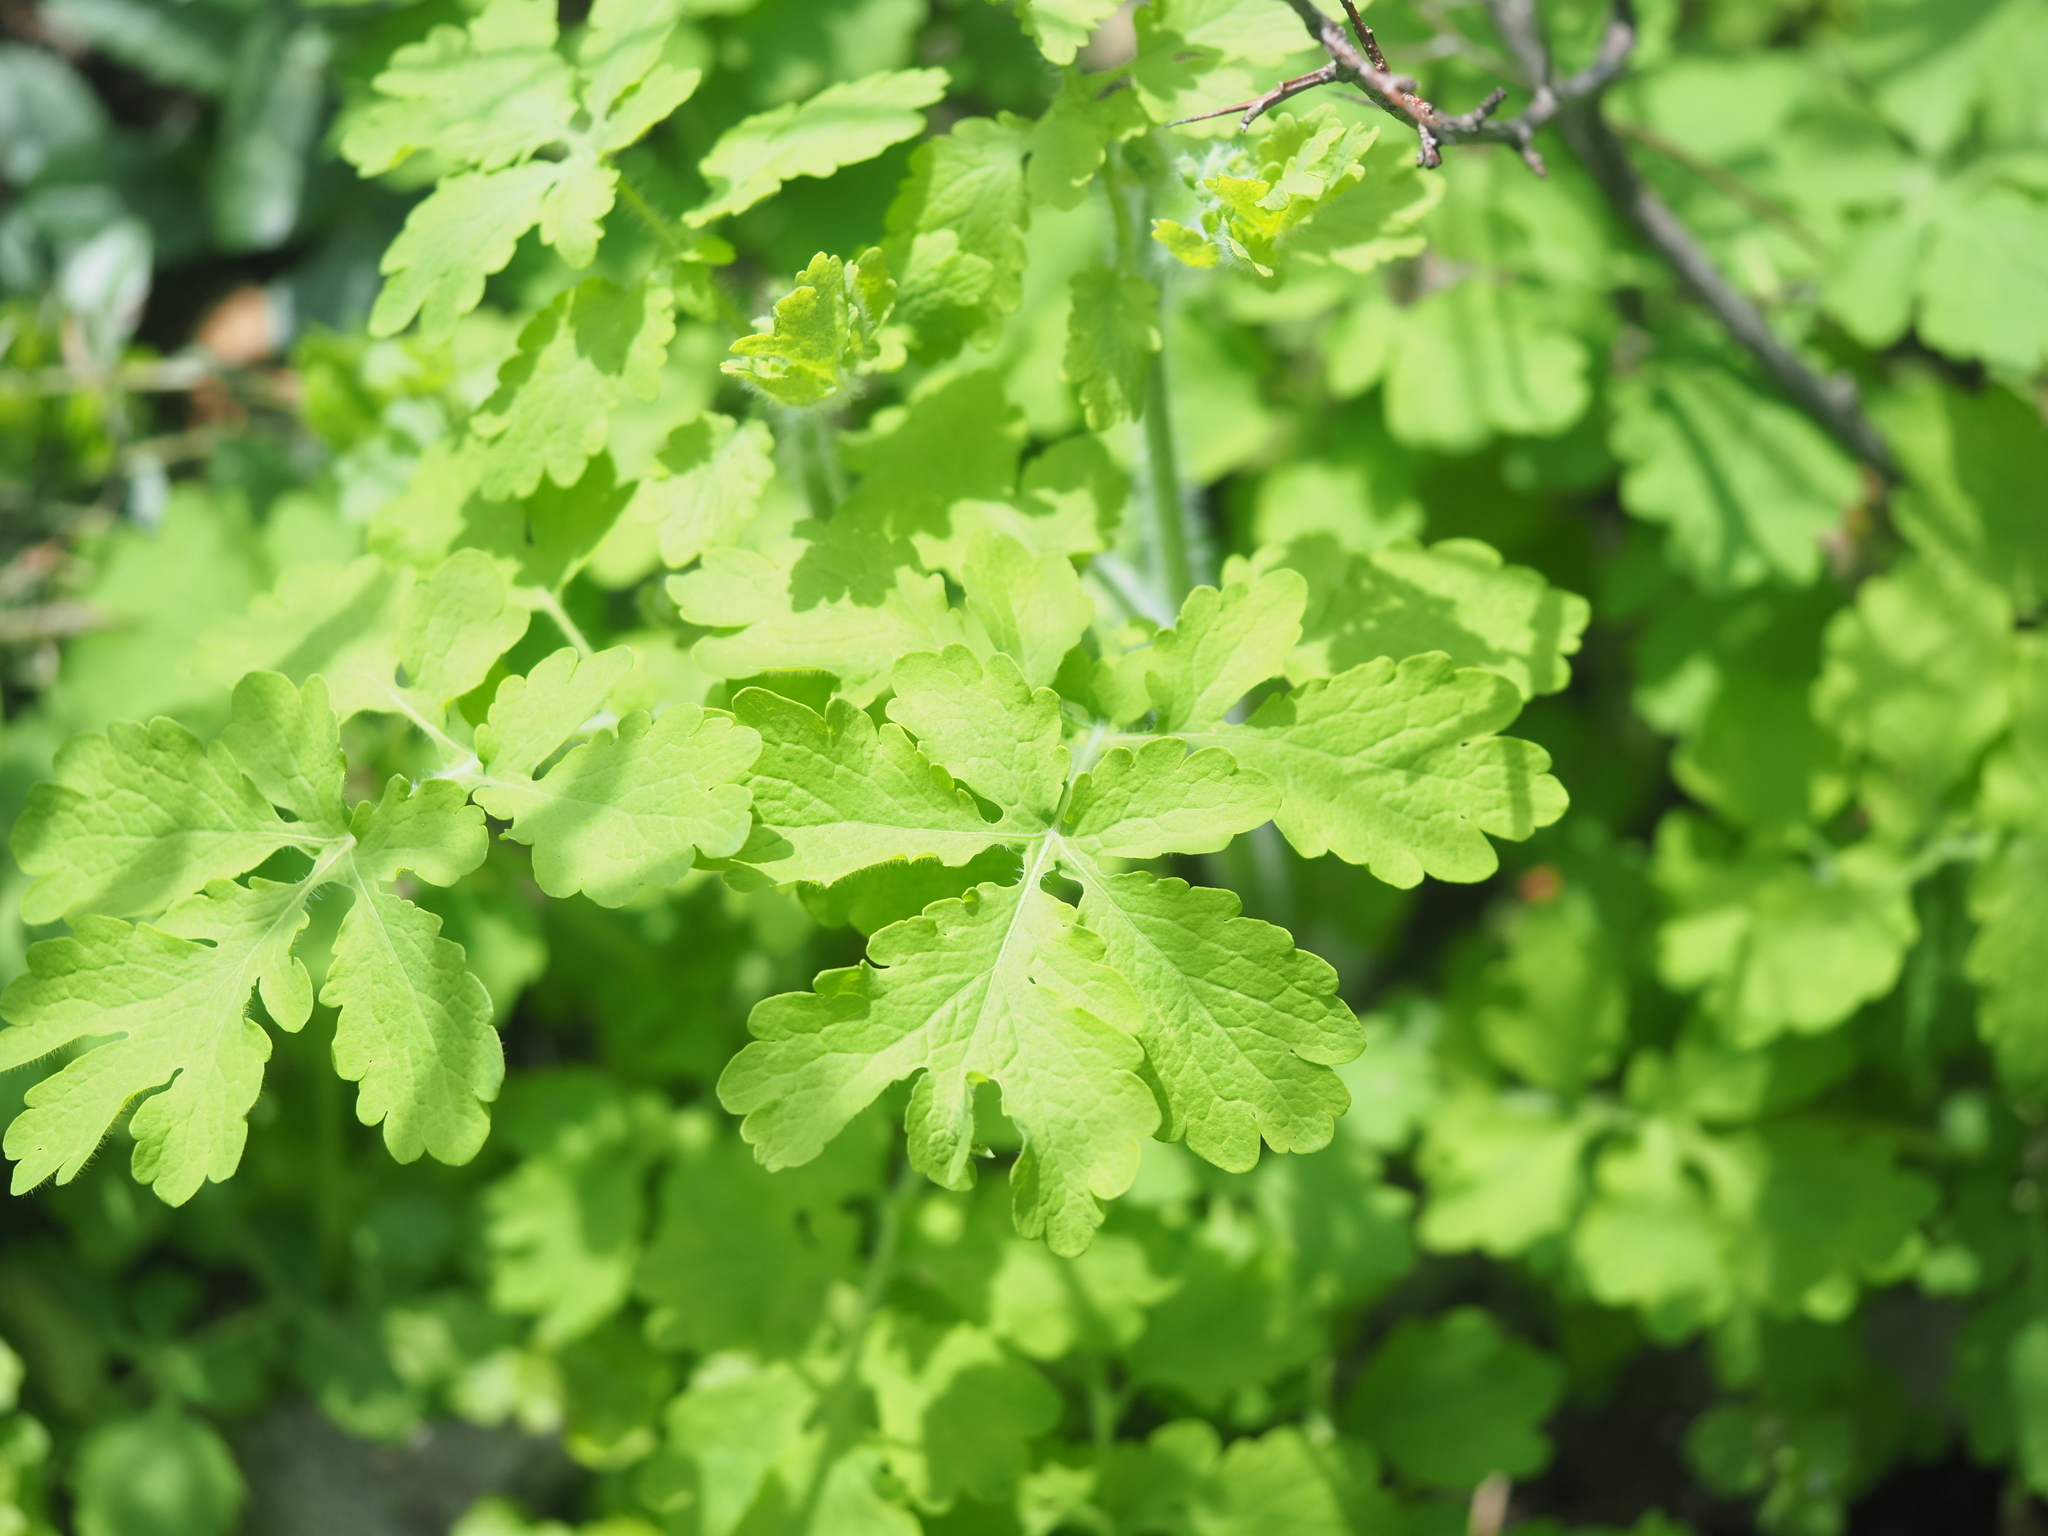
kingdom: Plantae
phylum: Tracheophyta
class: Magnoliopsida
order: Ranunculales
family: Papaveraceae
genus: Chelidonium
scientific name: Chelidonium majus
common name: Greater celandine
